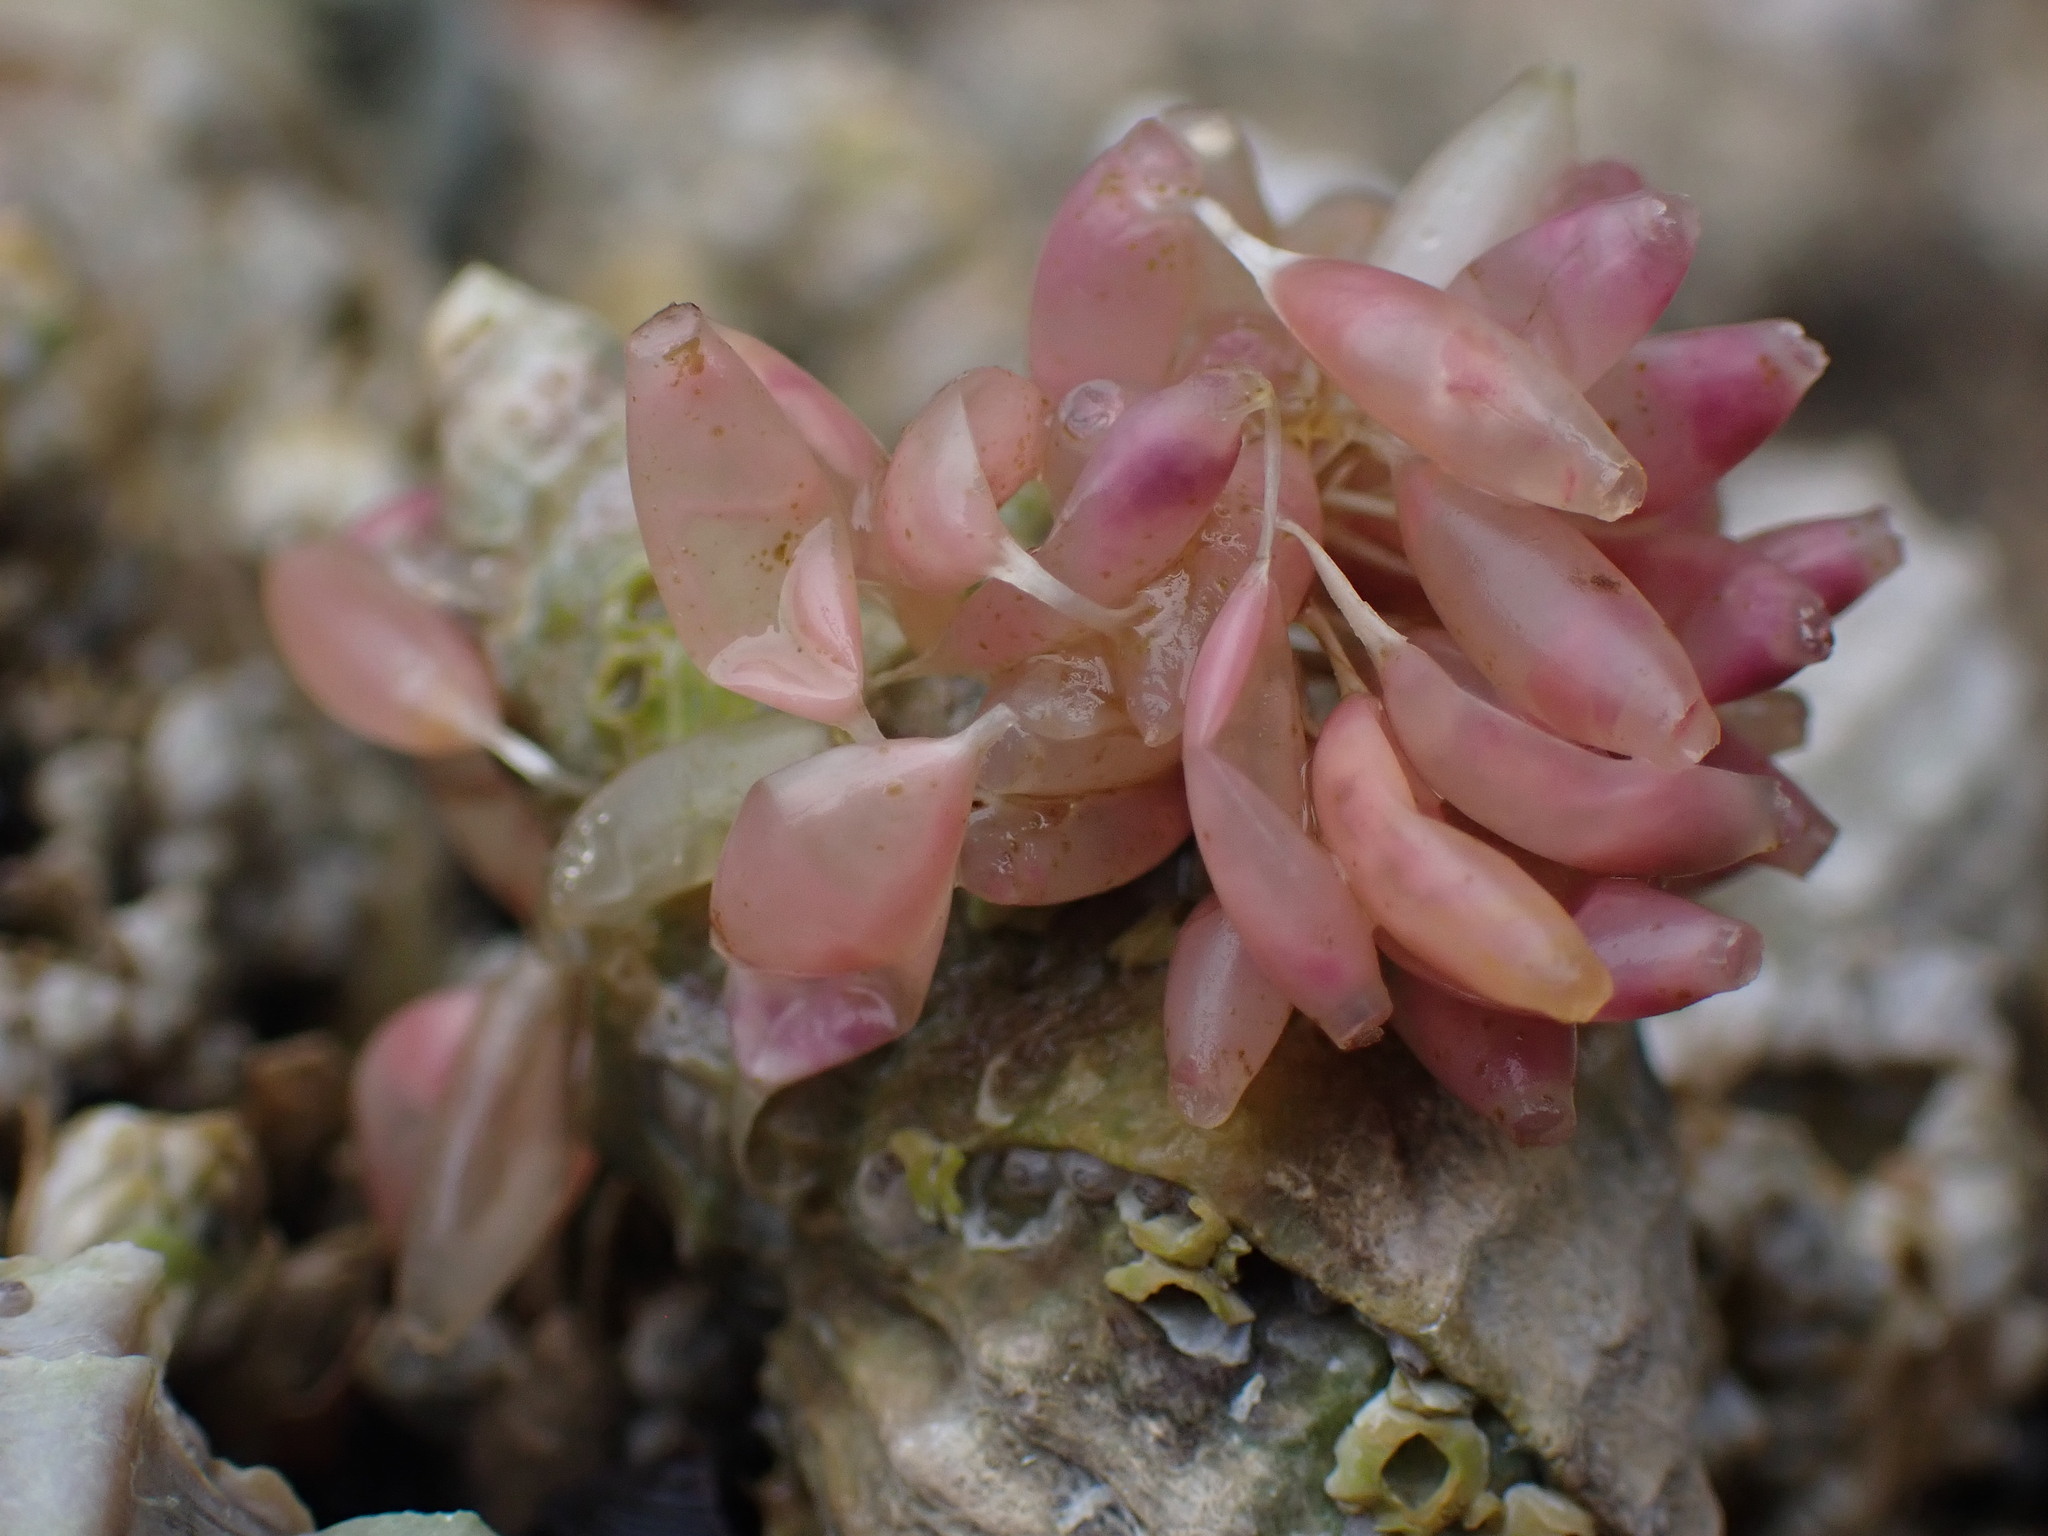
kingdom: Animalia
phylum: Mollusca
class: Gastropoda
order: Neogastropoda
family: Muricidae
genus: Nucella
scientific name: Nucella lamellosa
